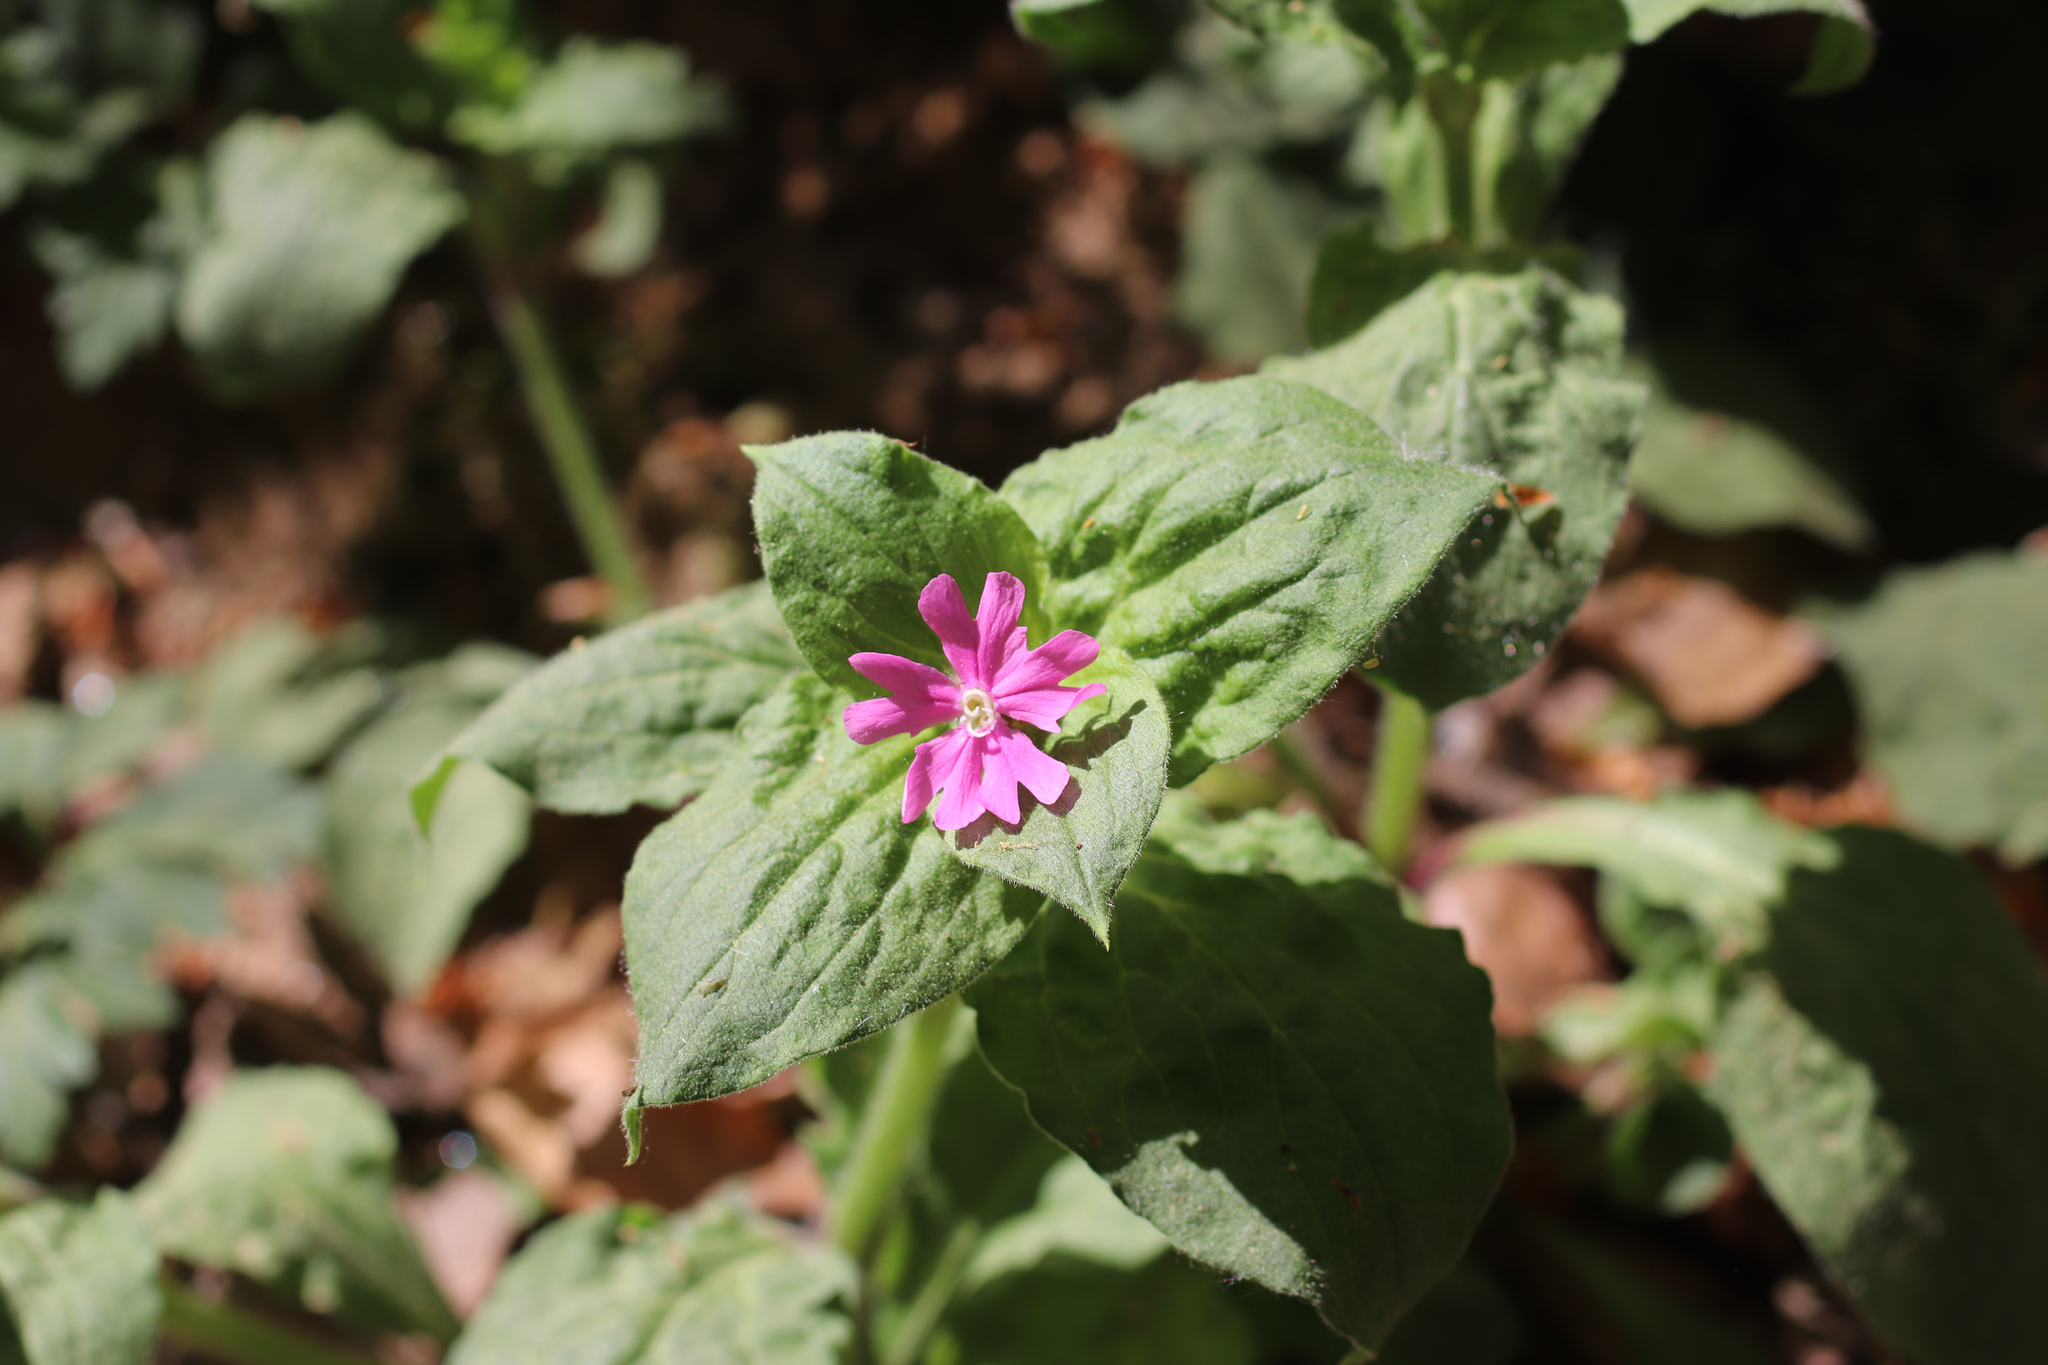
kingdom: Plantae
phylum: Tracheophyta
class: Magnoliopsida
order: Caryophyllales
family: Caryophyllaceae
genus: Silene
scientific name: Silene dioica
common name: Red campion
